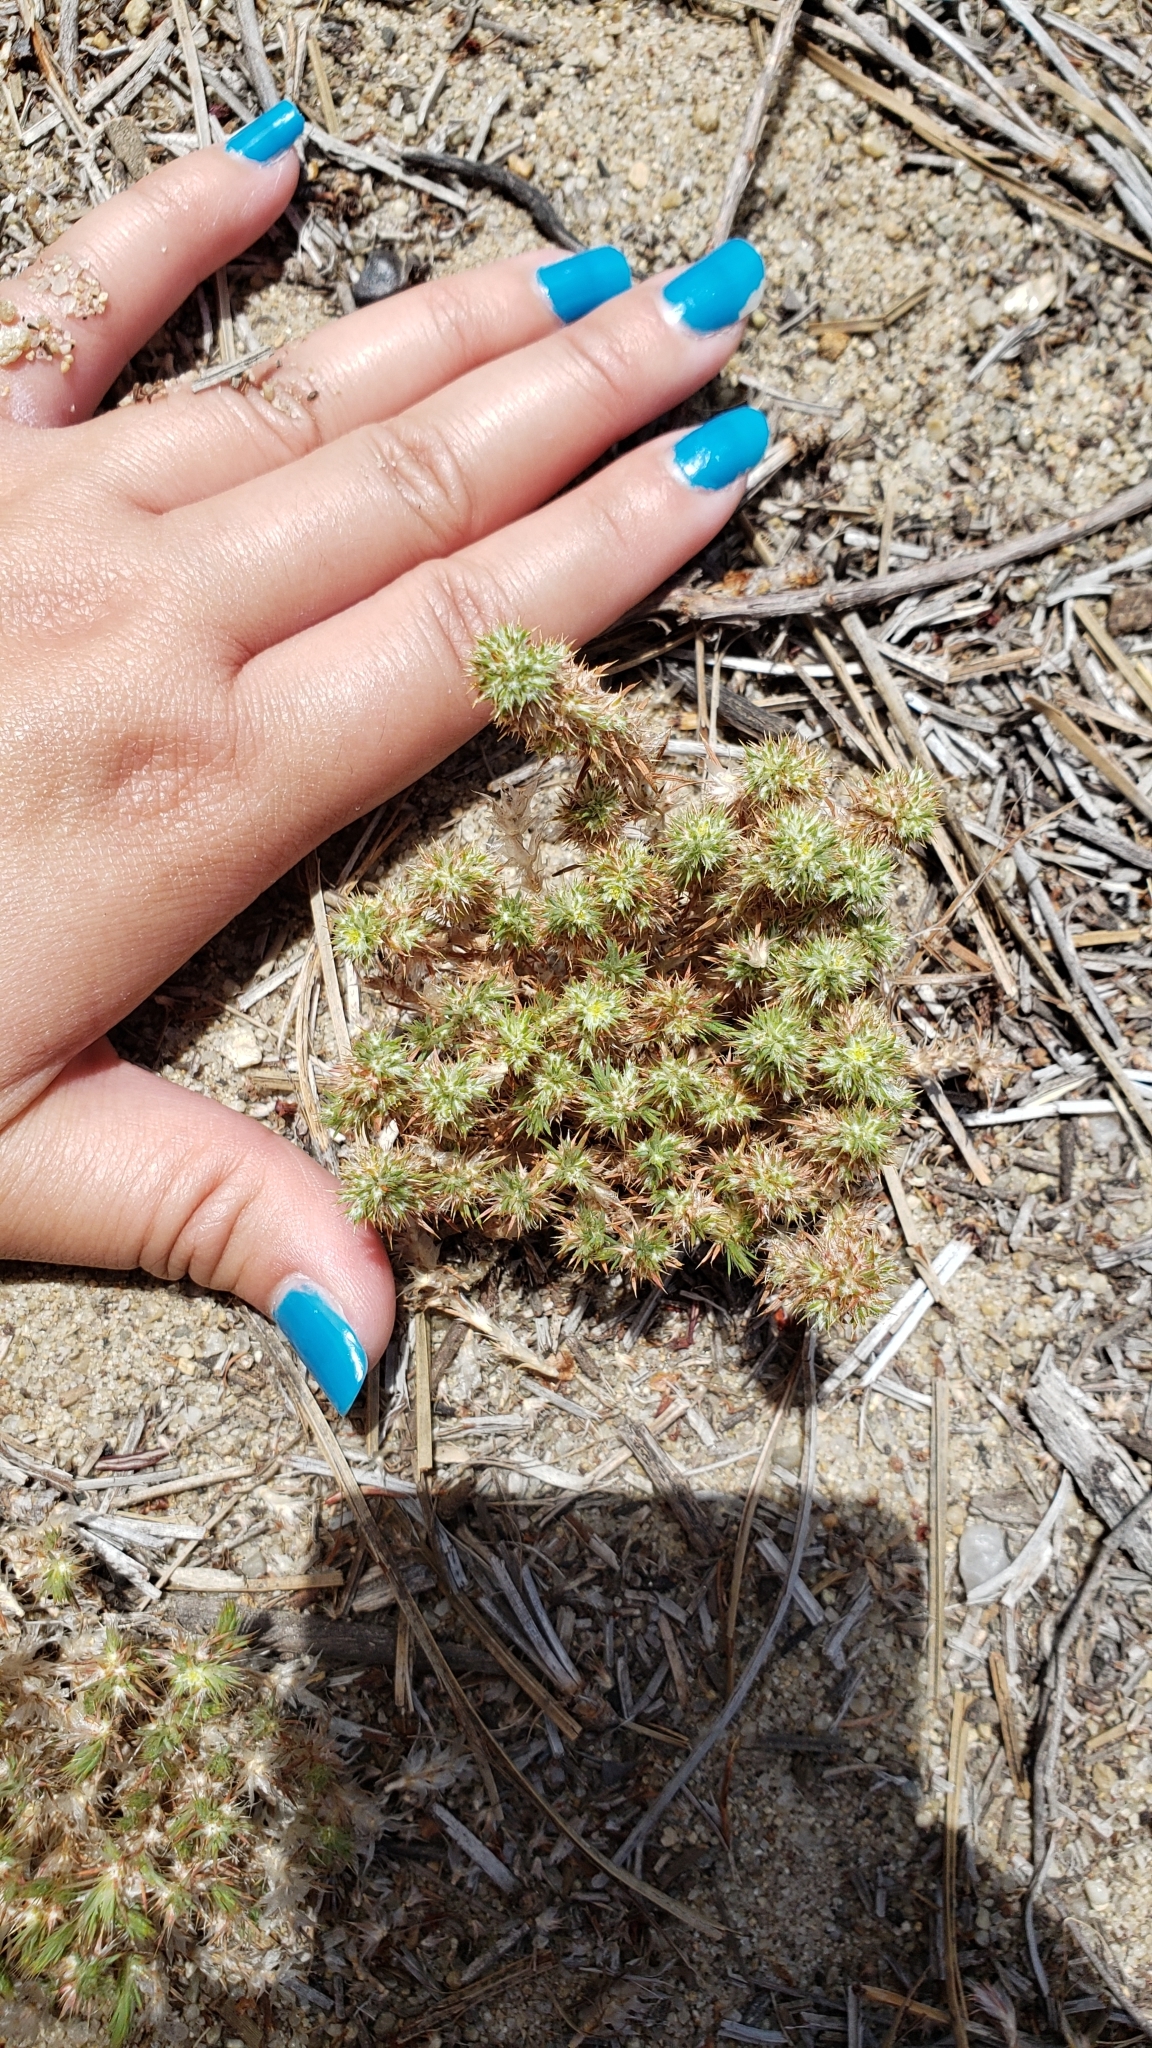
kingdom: Plantae
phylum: Tracheophyta
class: Magnoliopsida
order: Caryophyllales
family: Caryophyllaceae
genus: Cardionema
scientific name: Cardionema ramosissima
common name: Sandcarpet
